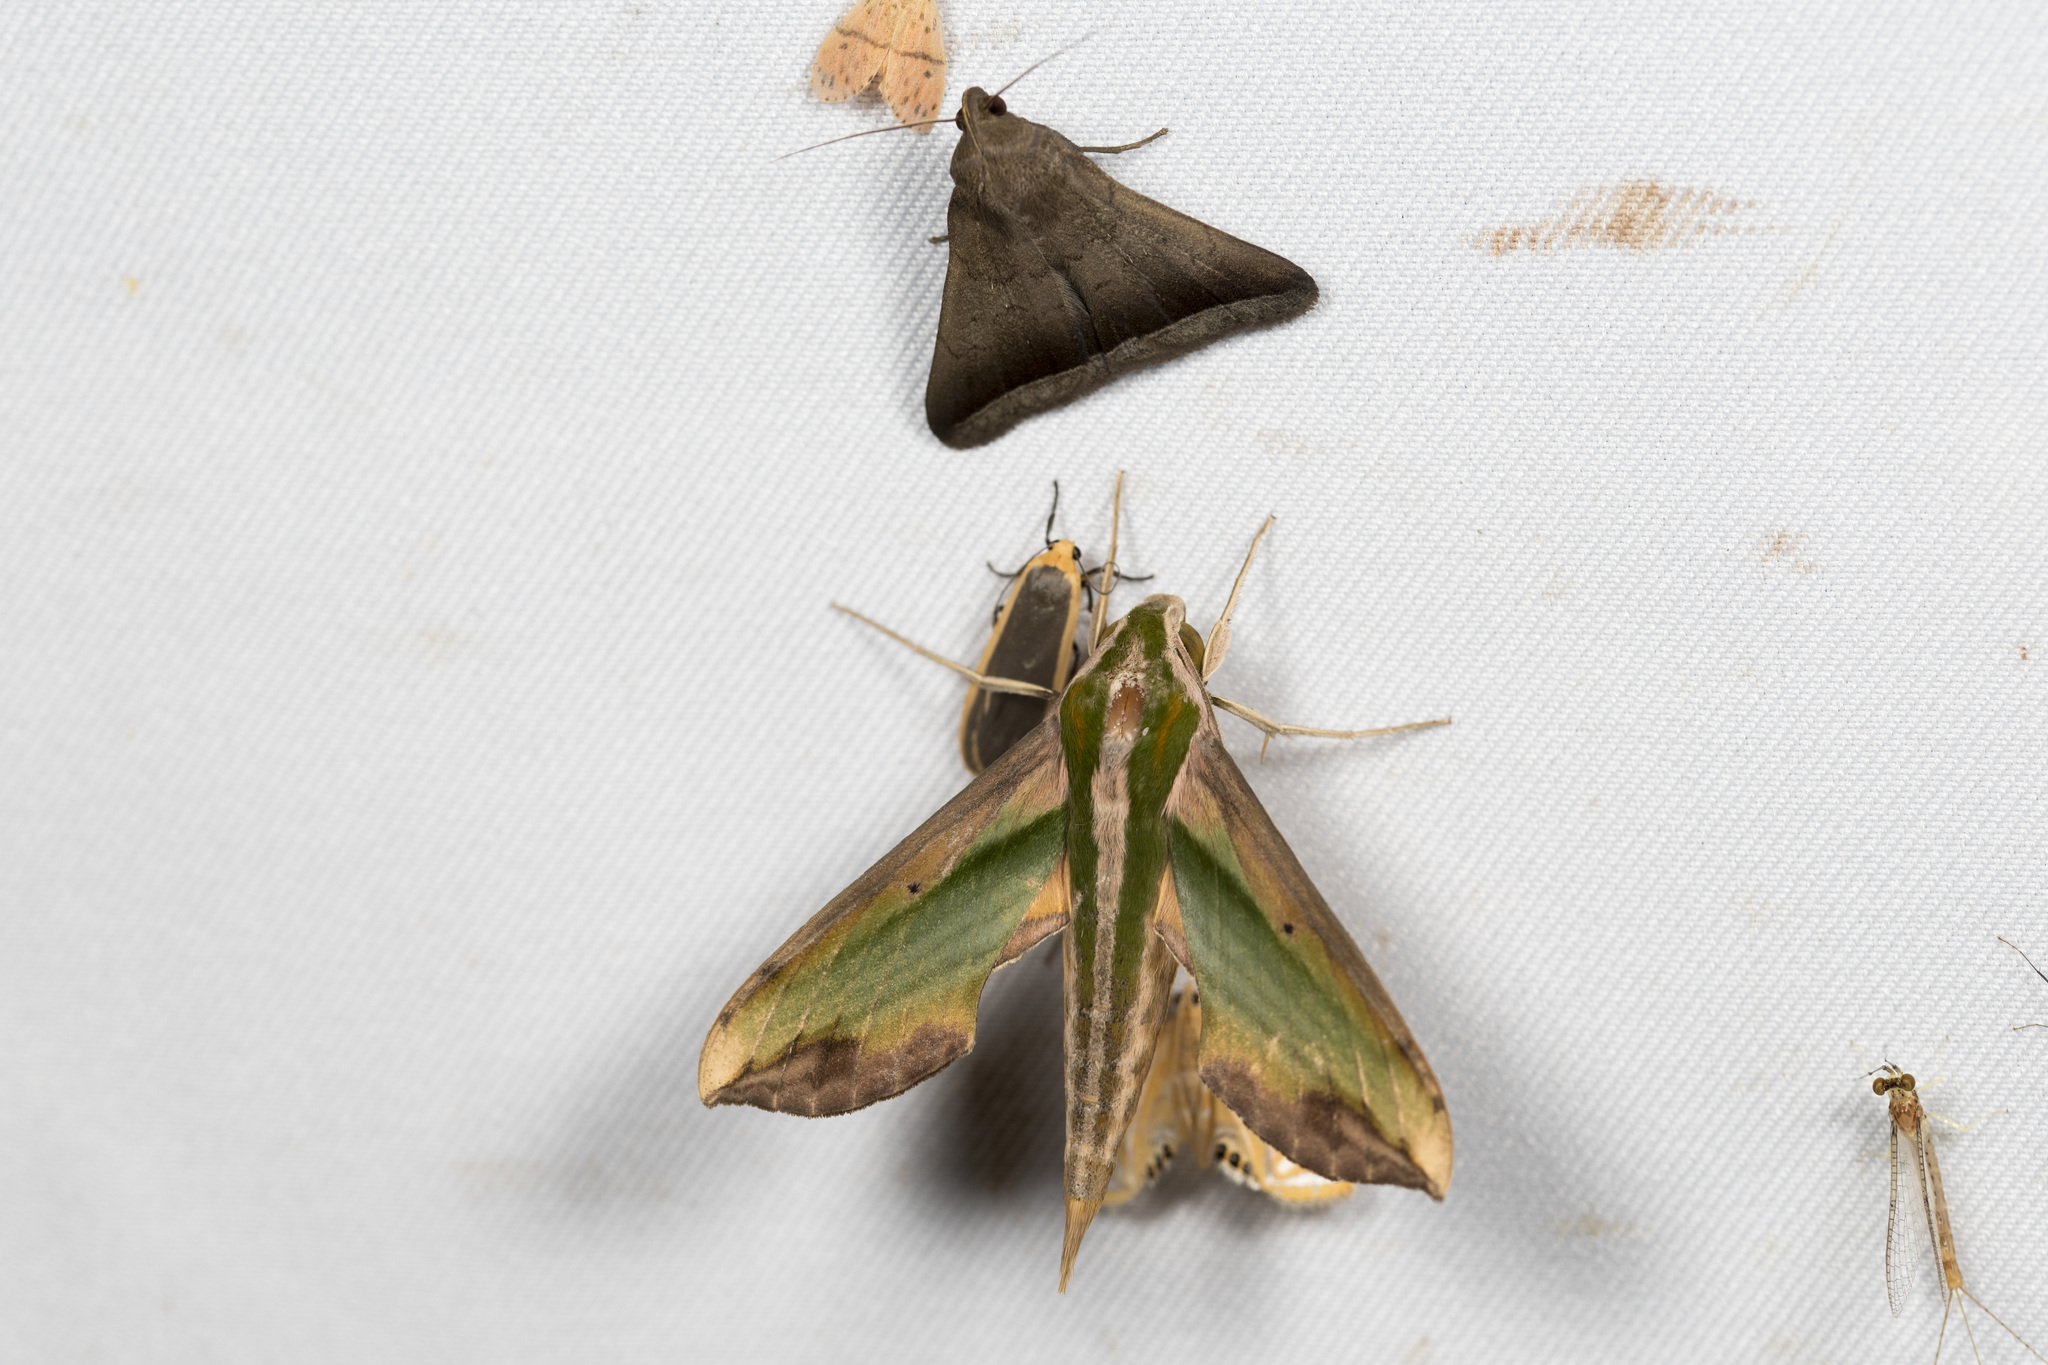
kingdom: Animalia
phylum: Arthropoda
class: Insecta
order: Lepidoptera
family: Sphingidae
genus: Pergesa
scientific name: Pergesa acteus
